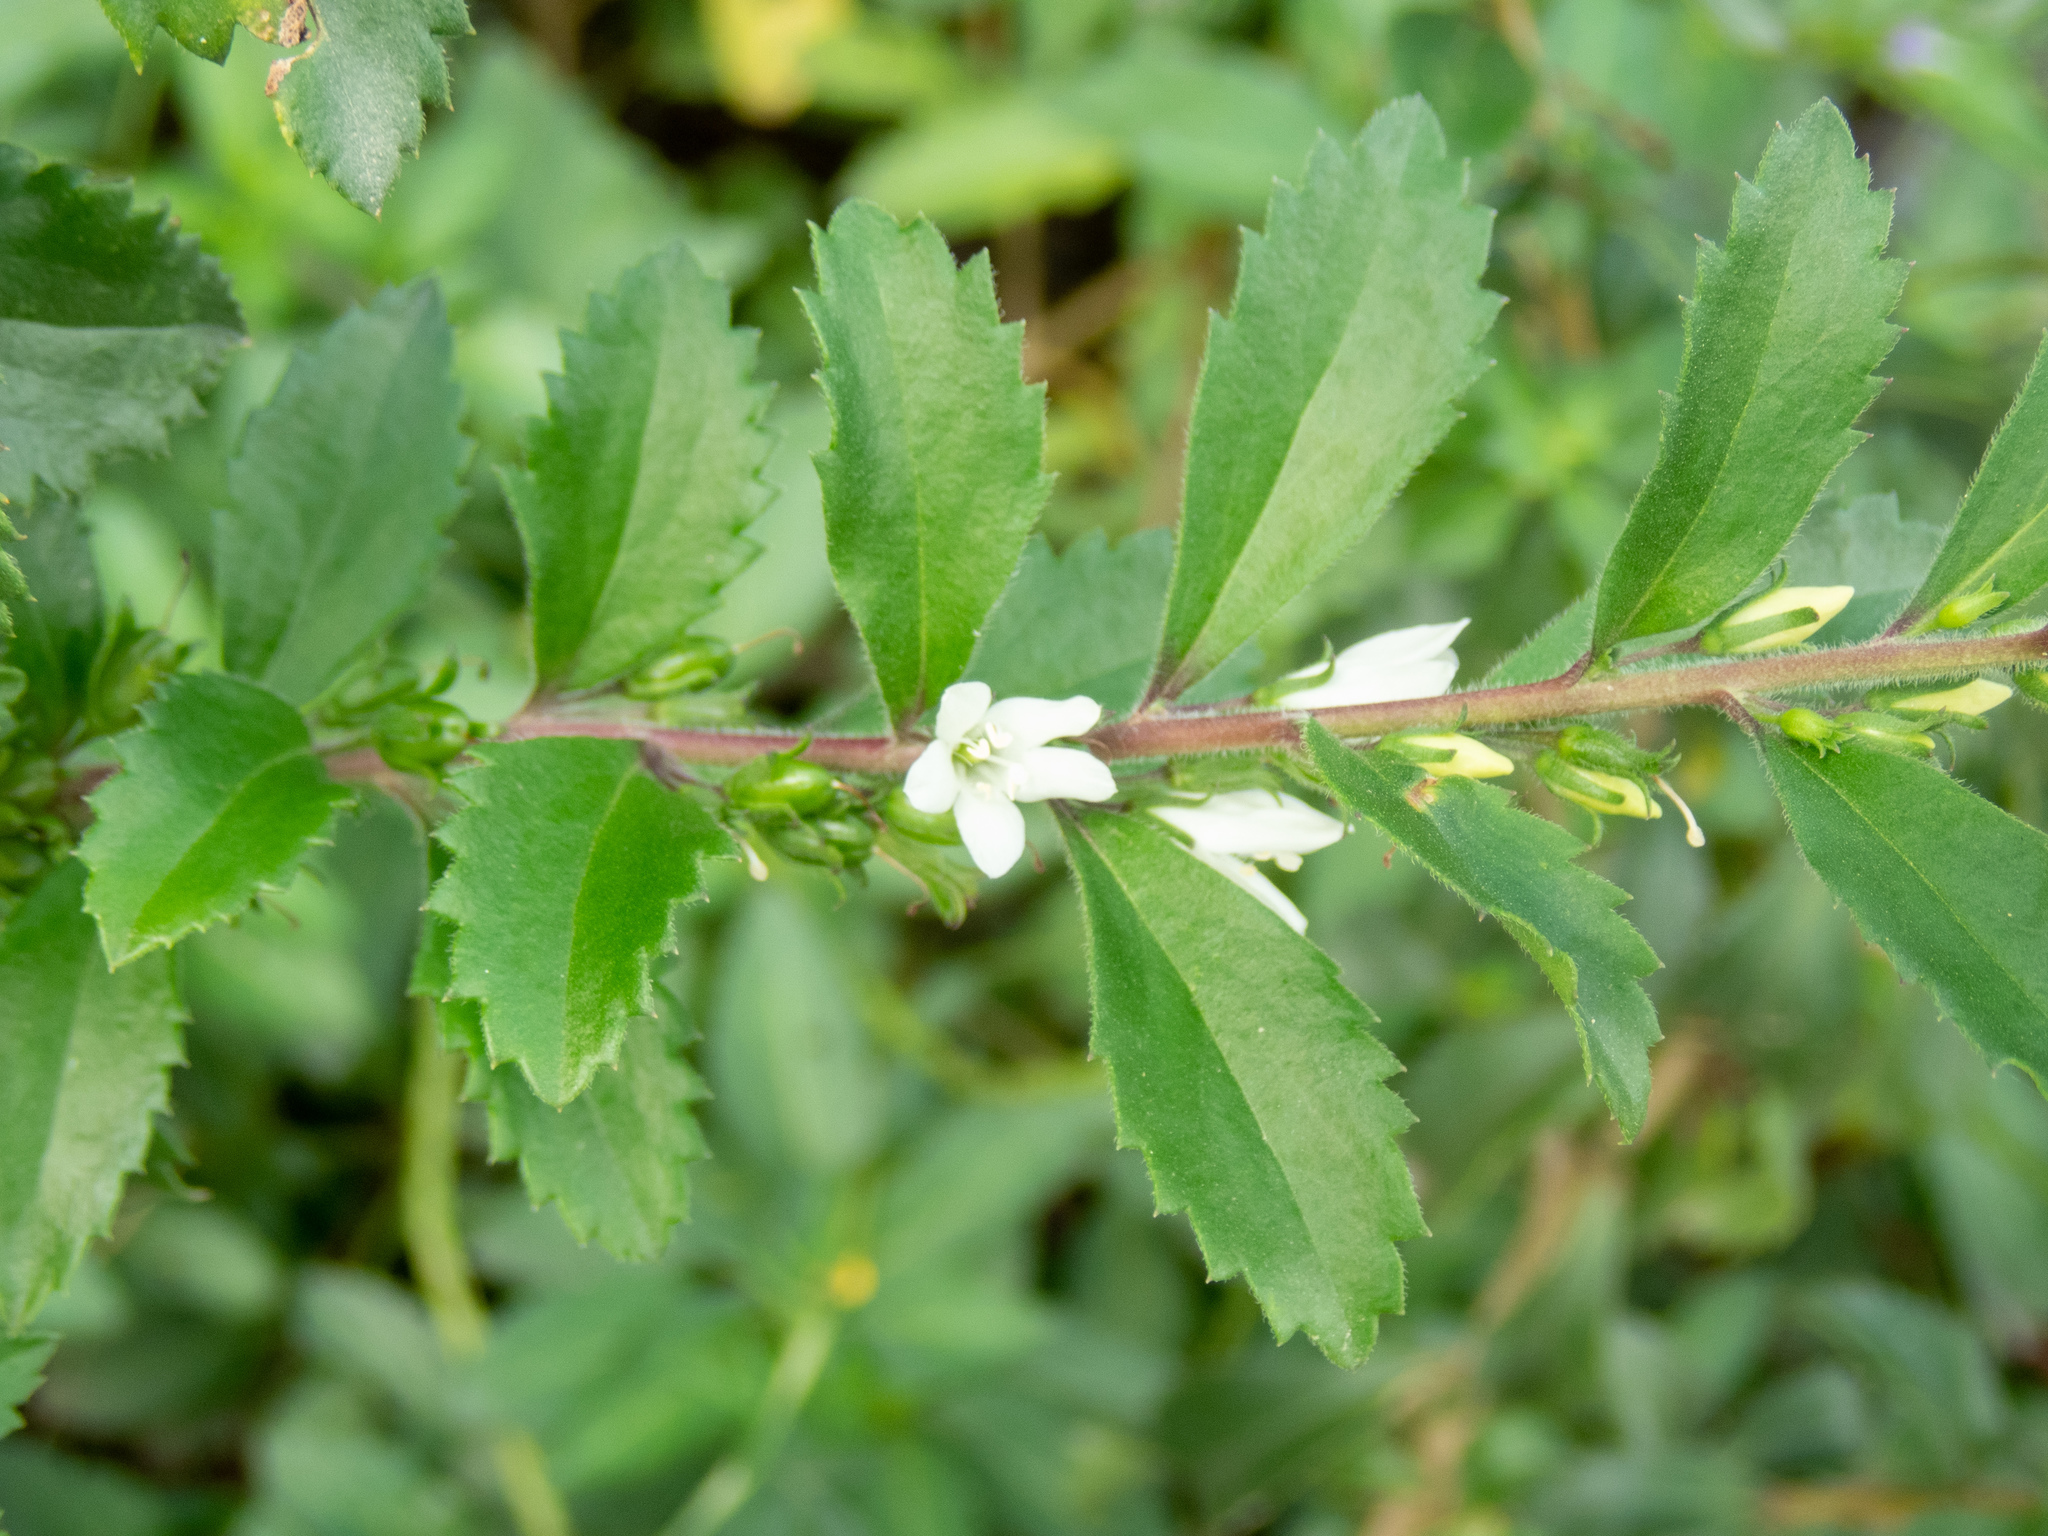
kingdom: Plantae
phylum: Tracheophyta
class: Magnoliopsida
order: Lamiales
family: Scrophulariaceae
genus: Capraria
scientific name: Capraria biflora
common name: Goatweed
